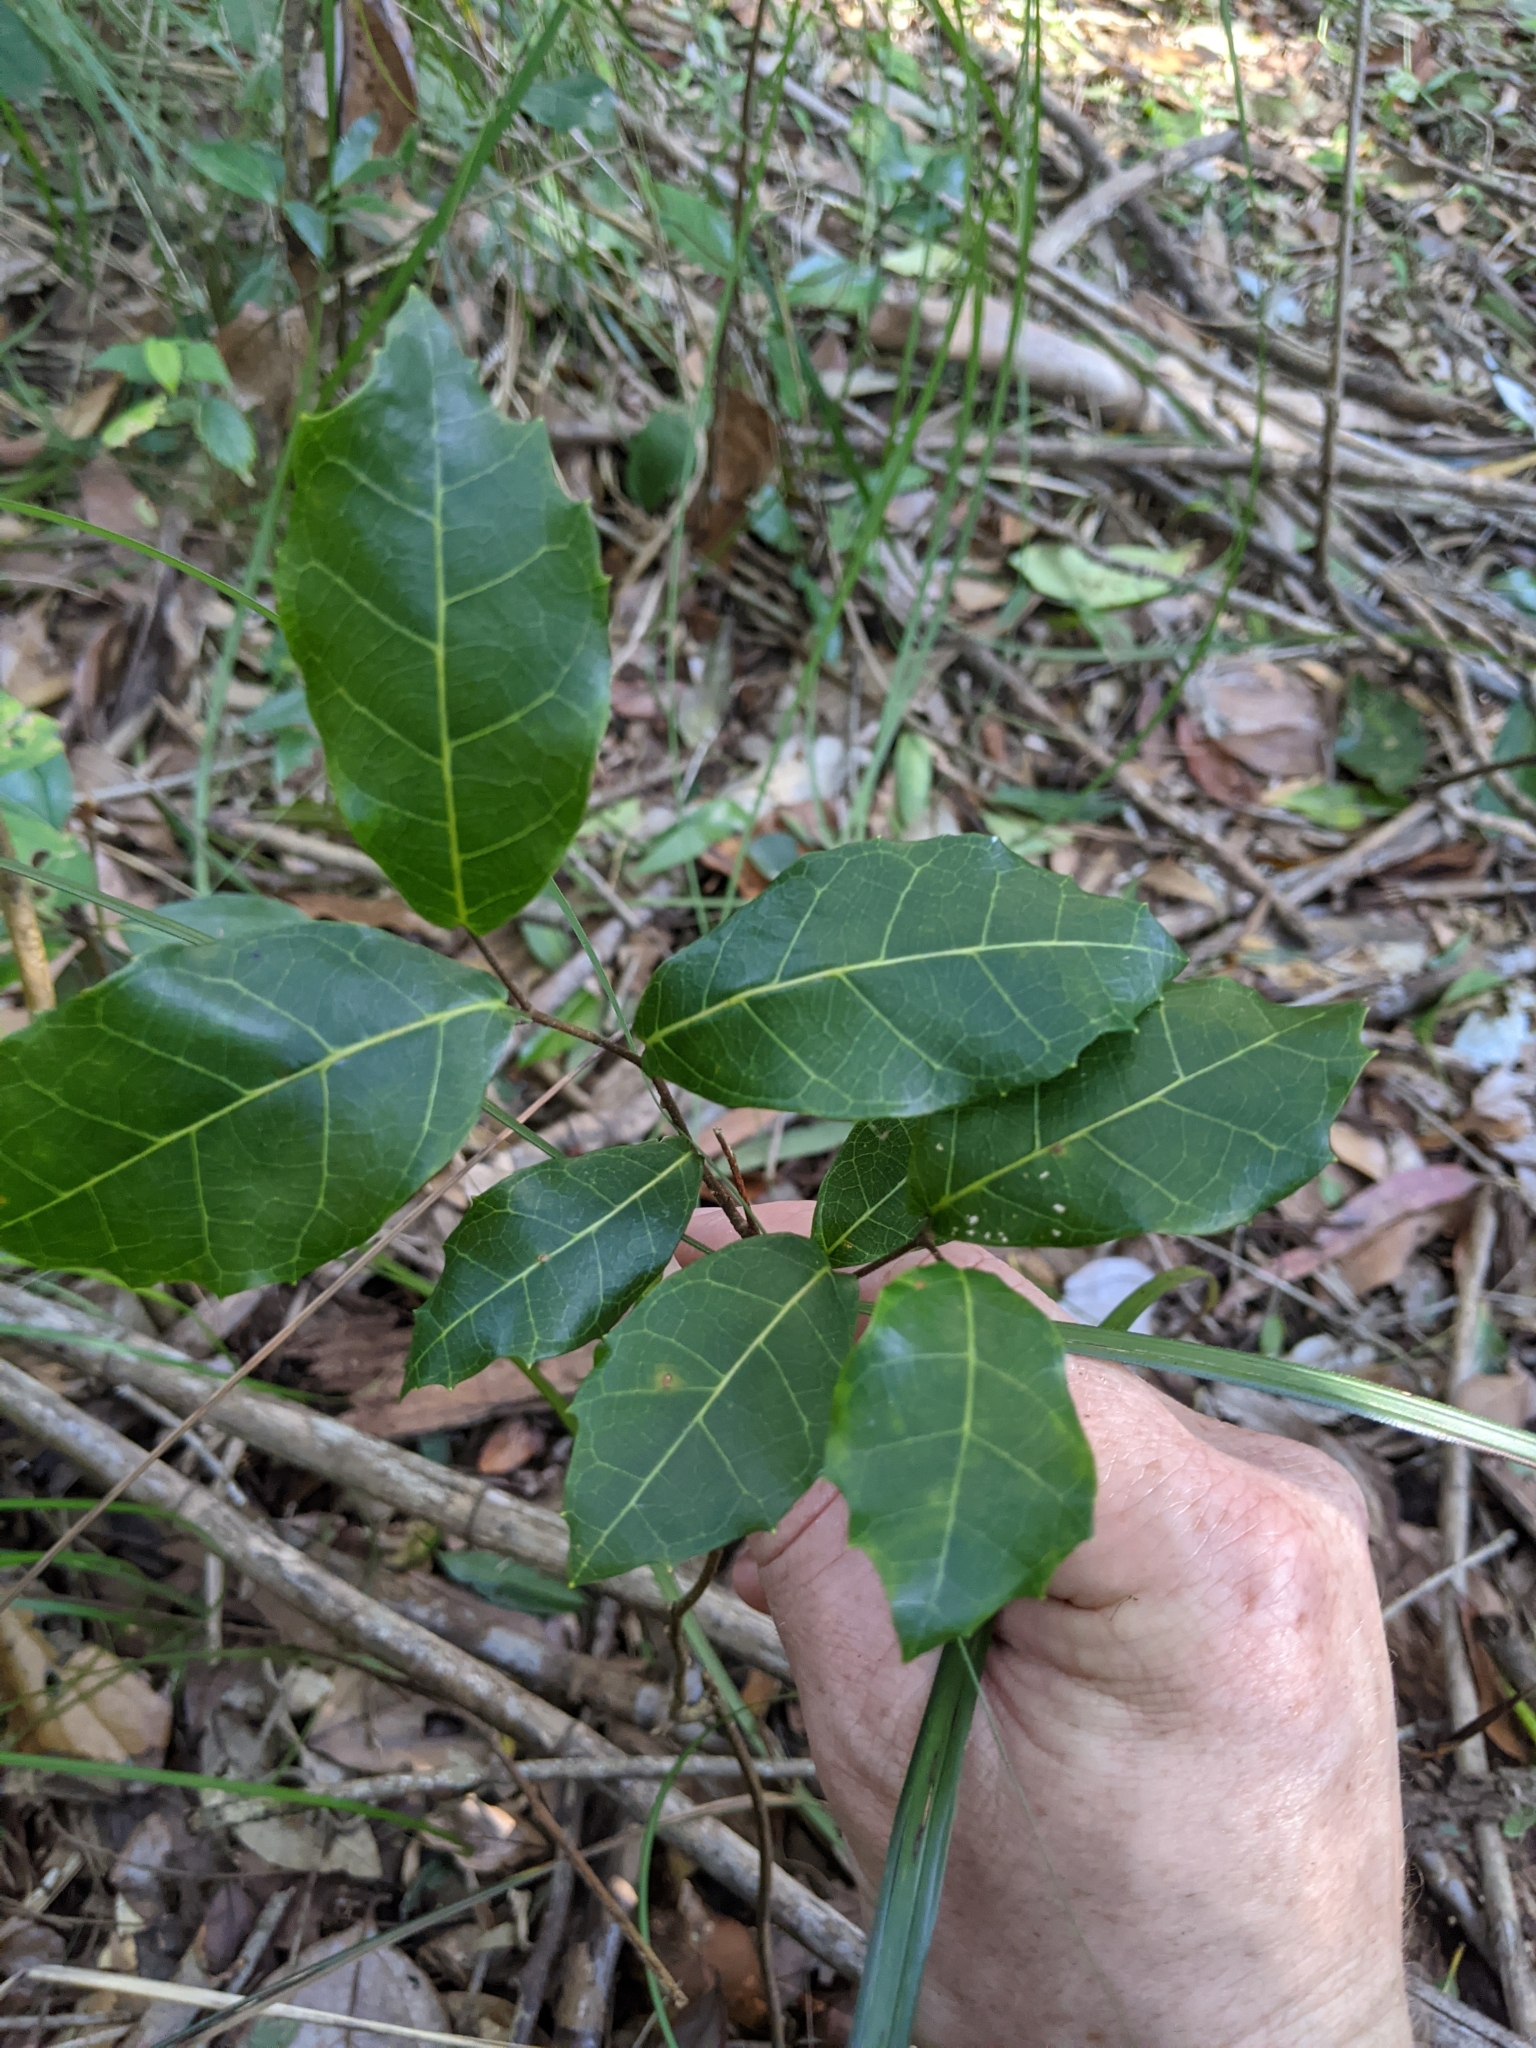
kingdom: Plantae
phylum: Tracheophyta
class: Magnoliopsida
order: Rosales
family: Moraceae
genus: Malaisia
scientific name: Malaisia scandens
